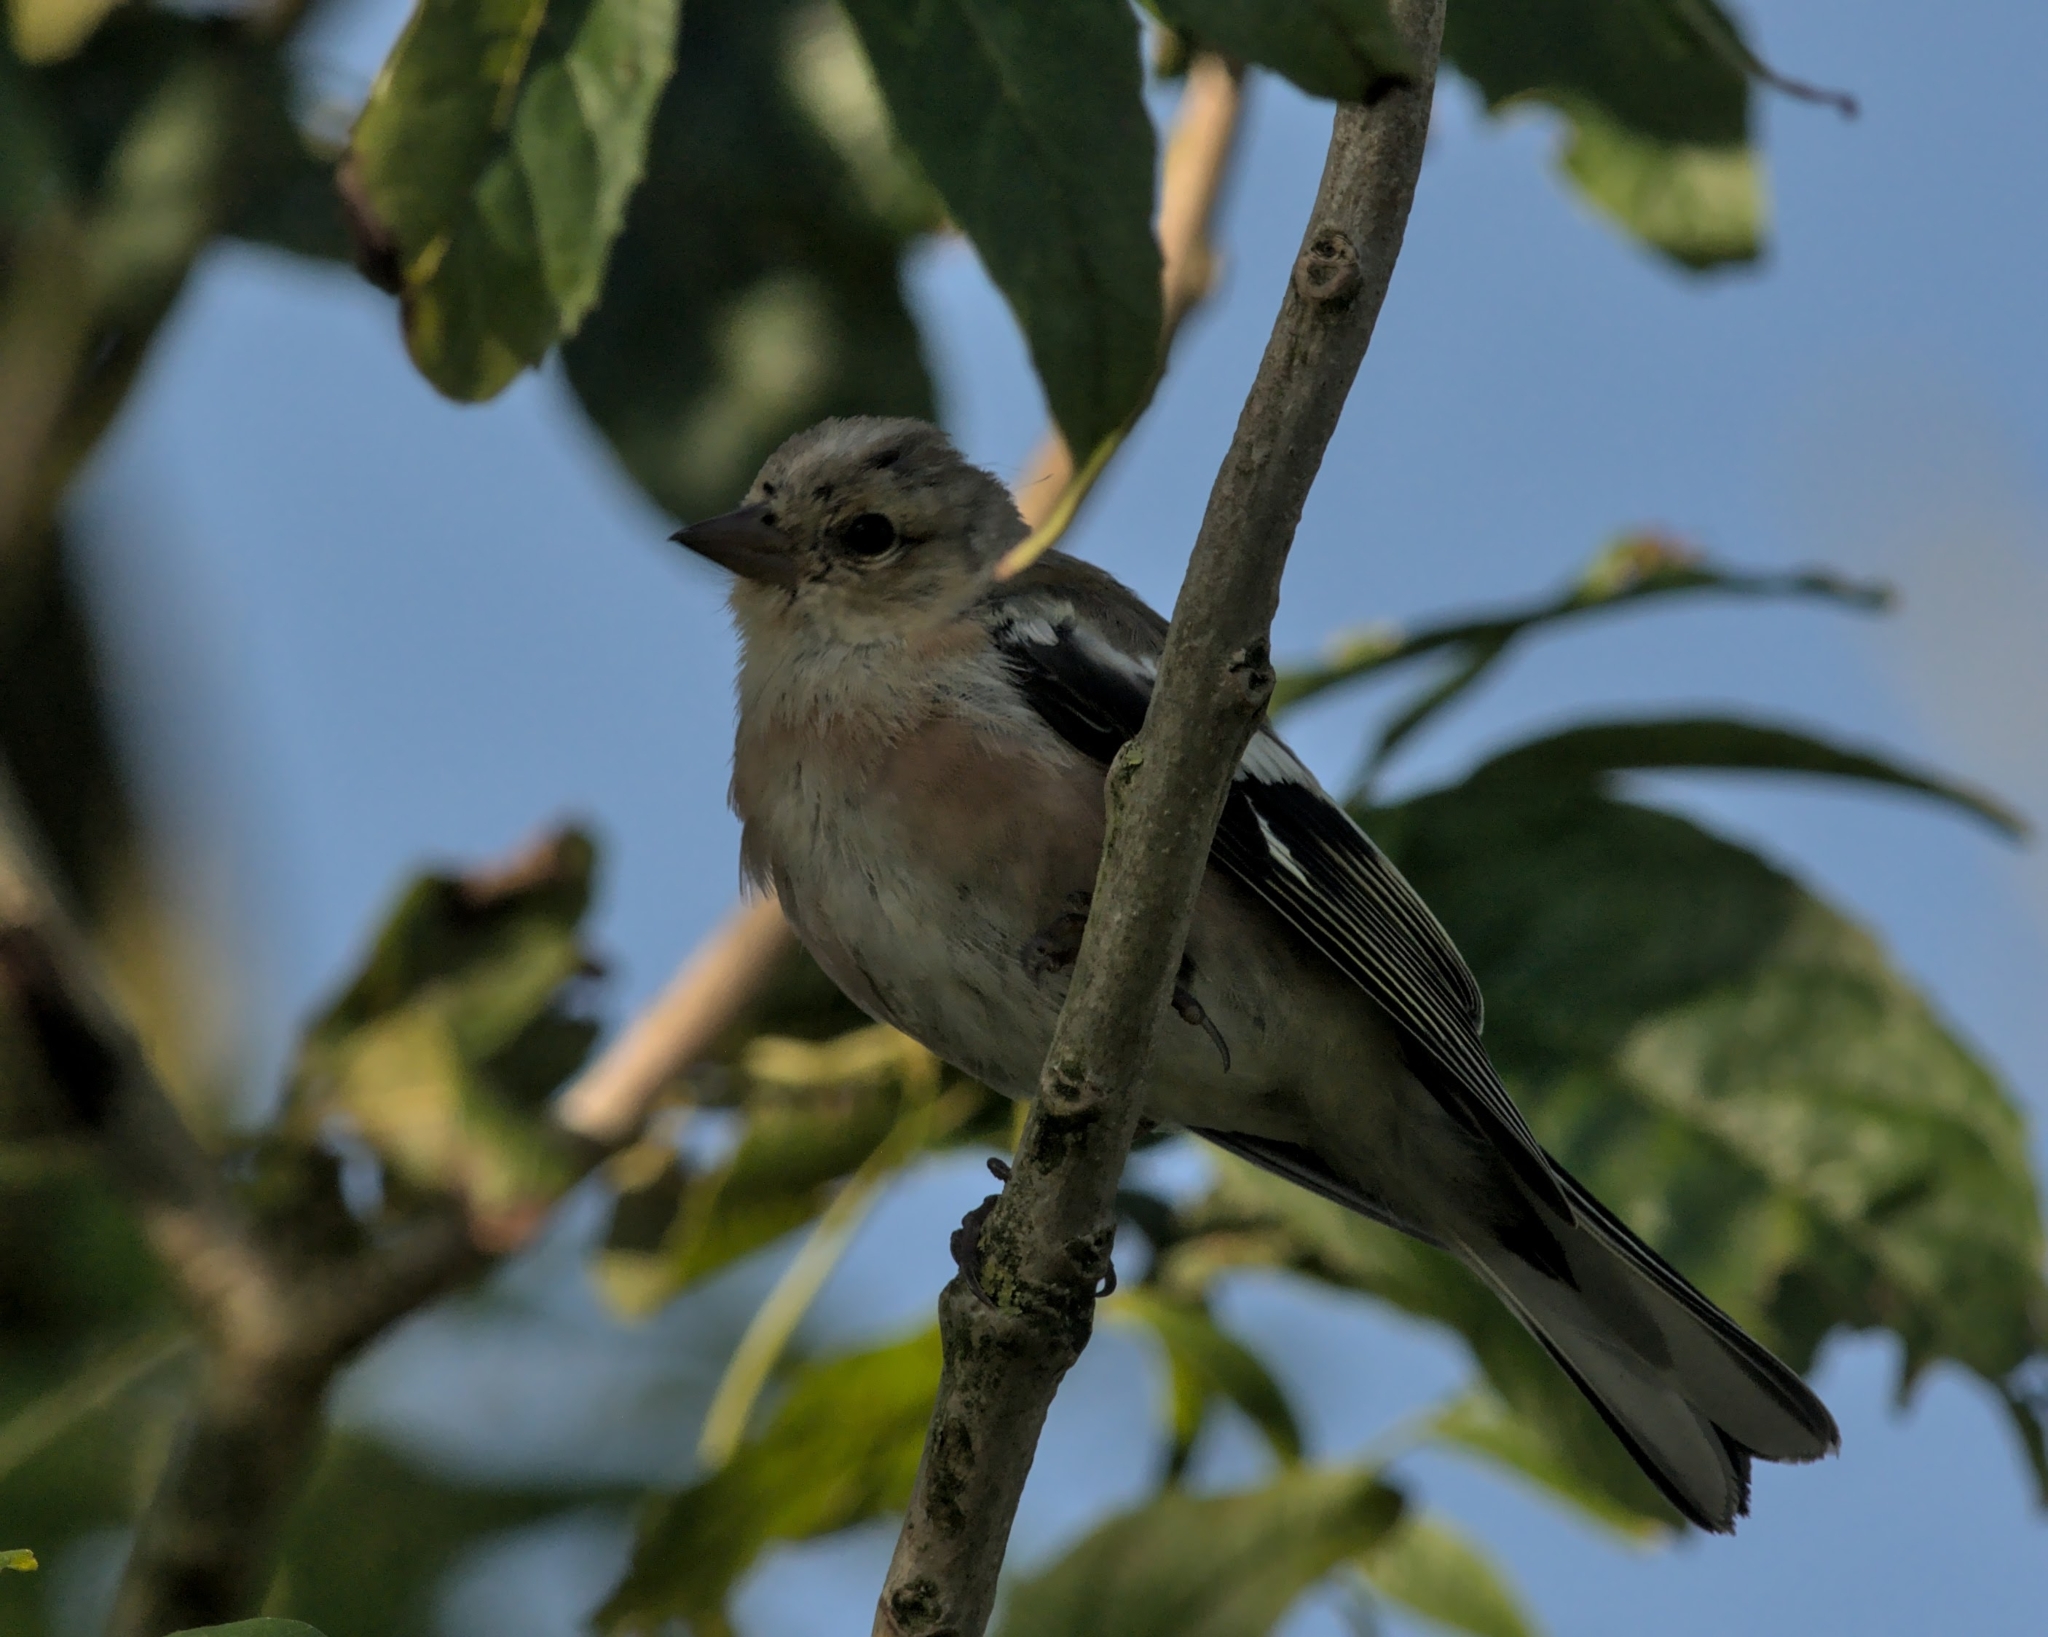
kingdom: Animalia
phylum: Chordata
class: Aves
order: Passeriformes
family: Fringillidae
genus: Fringilla
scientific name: Fringilla coelebs
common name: Common chaffinch
